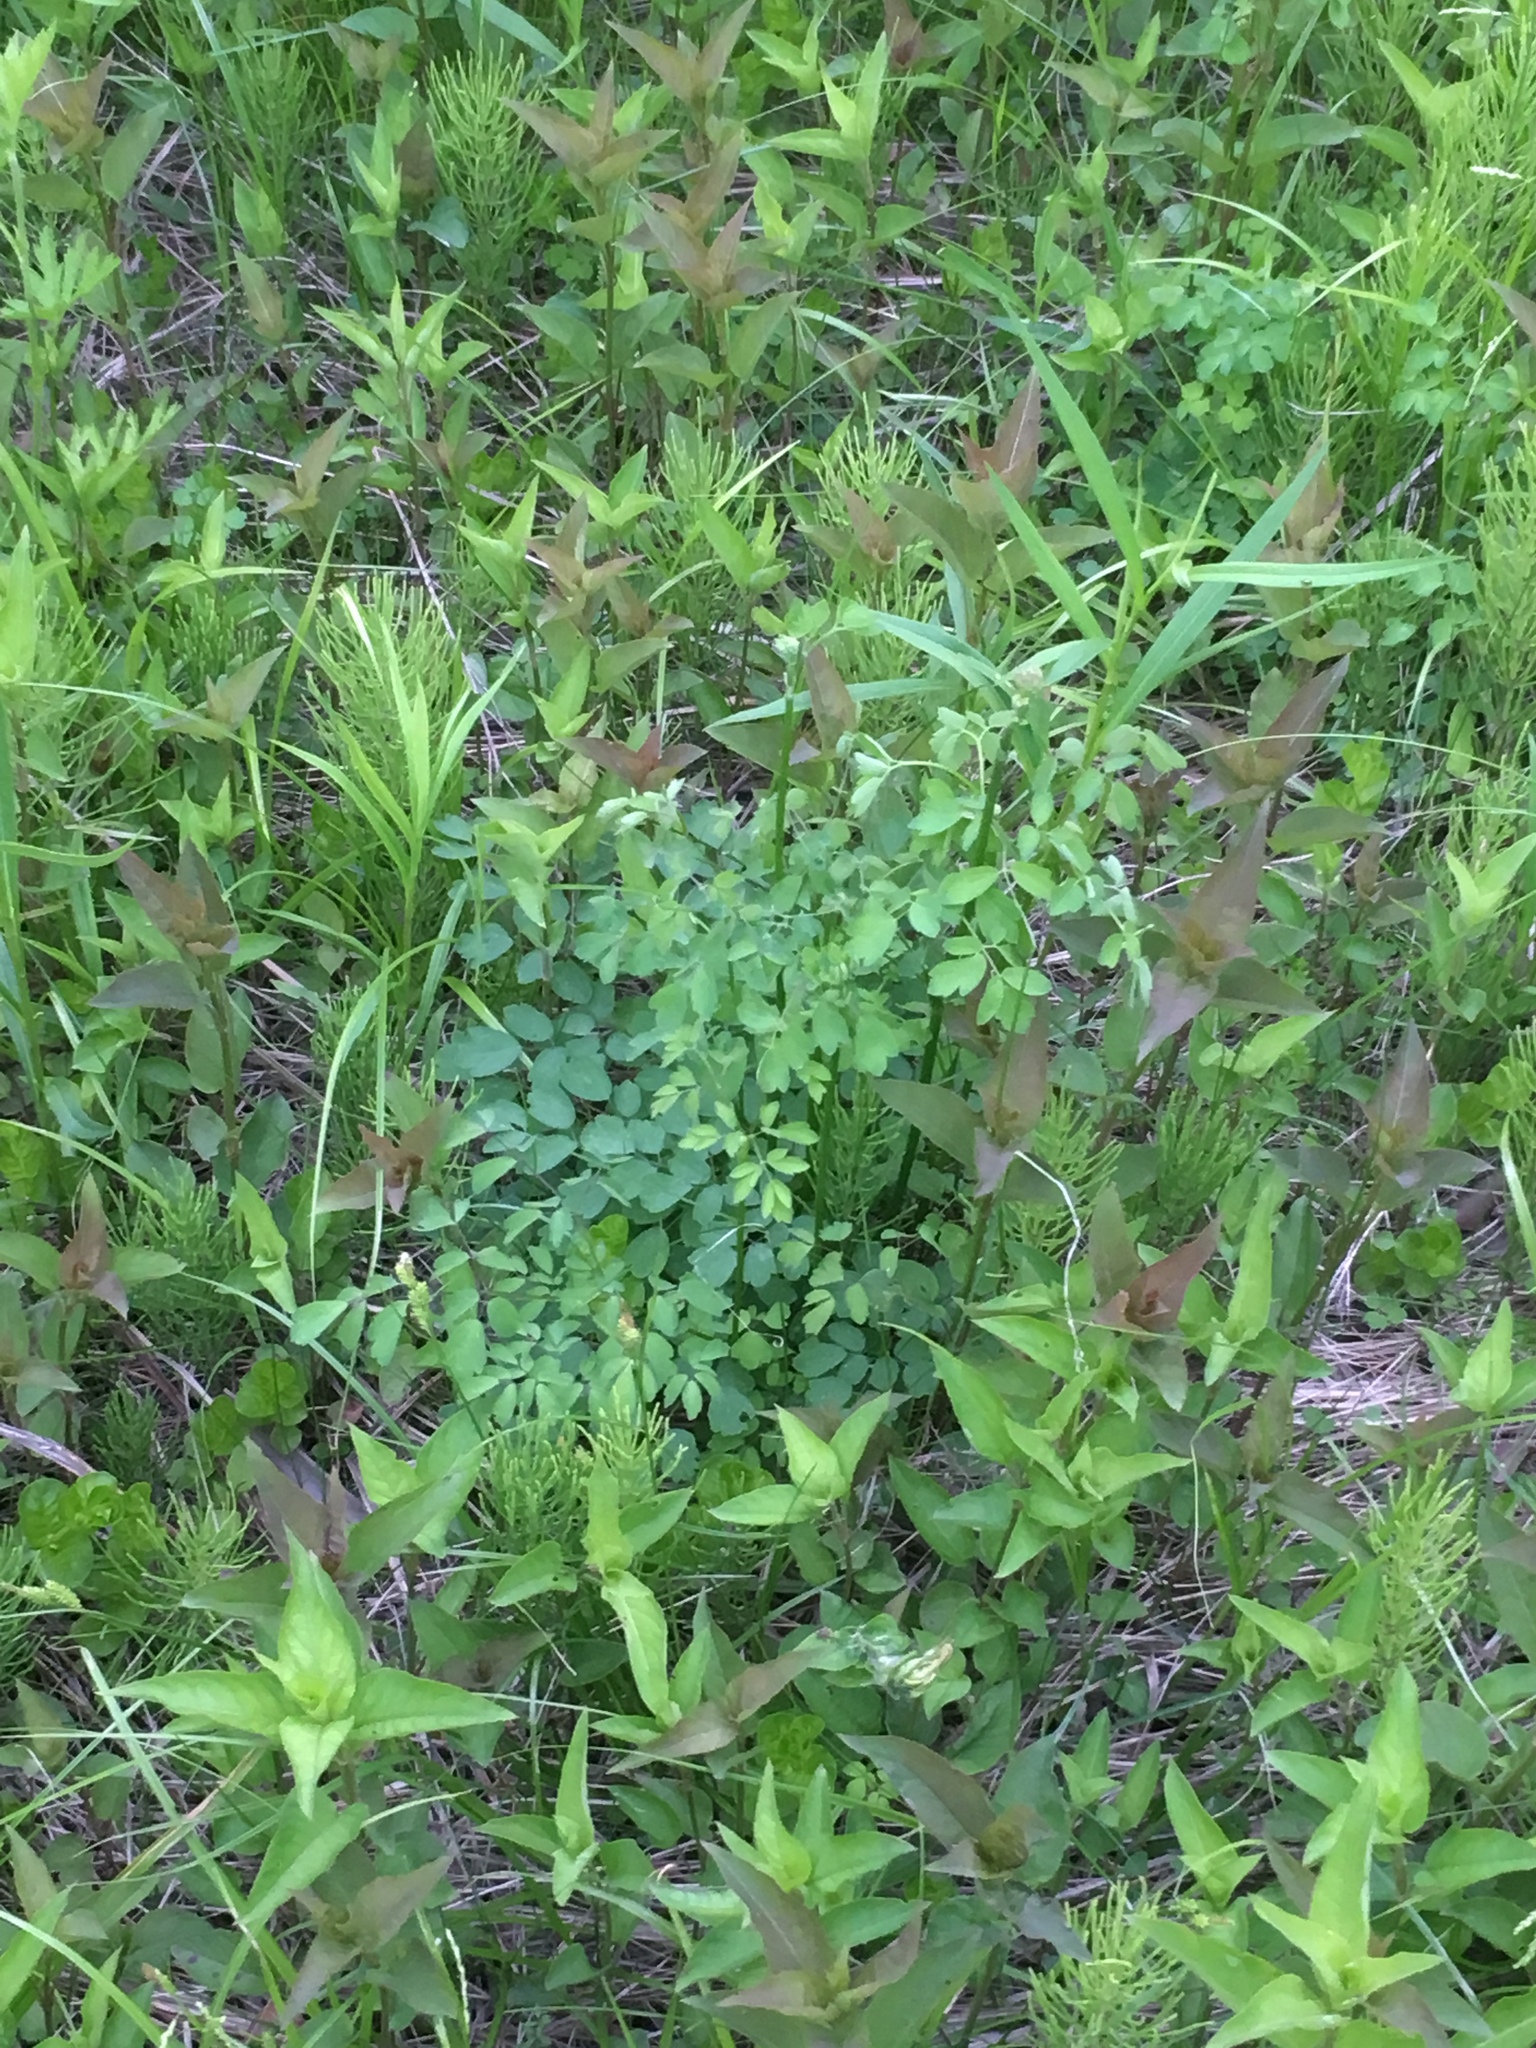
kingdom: Plantae
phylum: Tracheophyta
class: Magnoliopsida
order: Ranunculales
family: Ranunculaceae
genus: Thalictrum
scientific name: Thalictrum pubescens
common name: King-of-the-meadow
